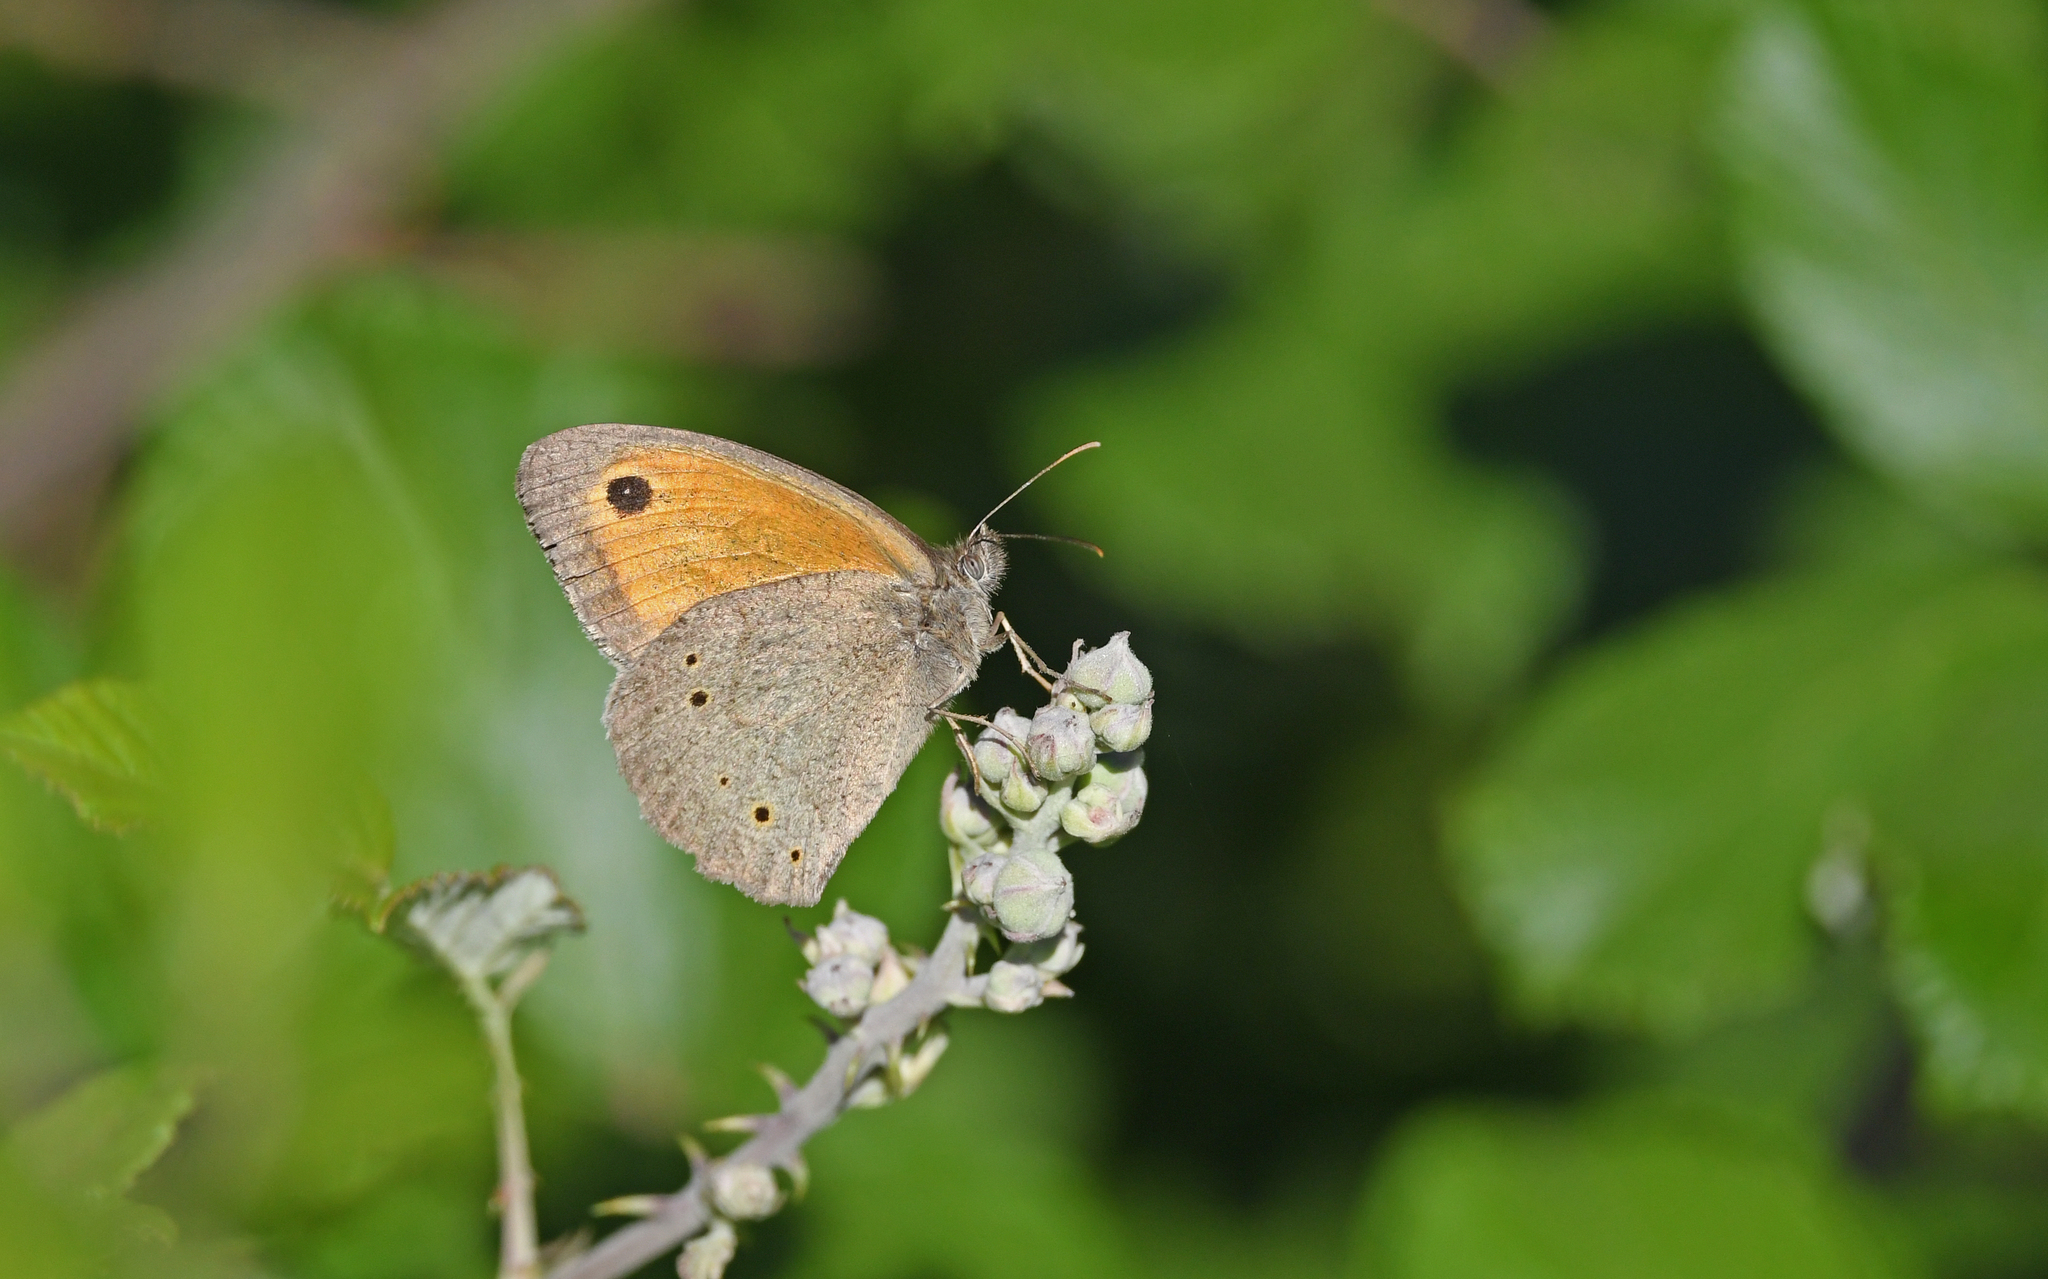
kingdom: Animalia
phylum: Arthropoda
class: Insecta
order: Lepidoptera
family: Nymphalidae
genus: Maniola
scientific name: Maniola jurtina
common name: Meadow brown
